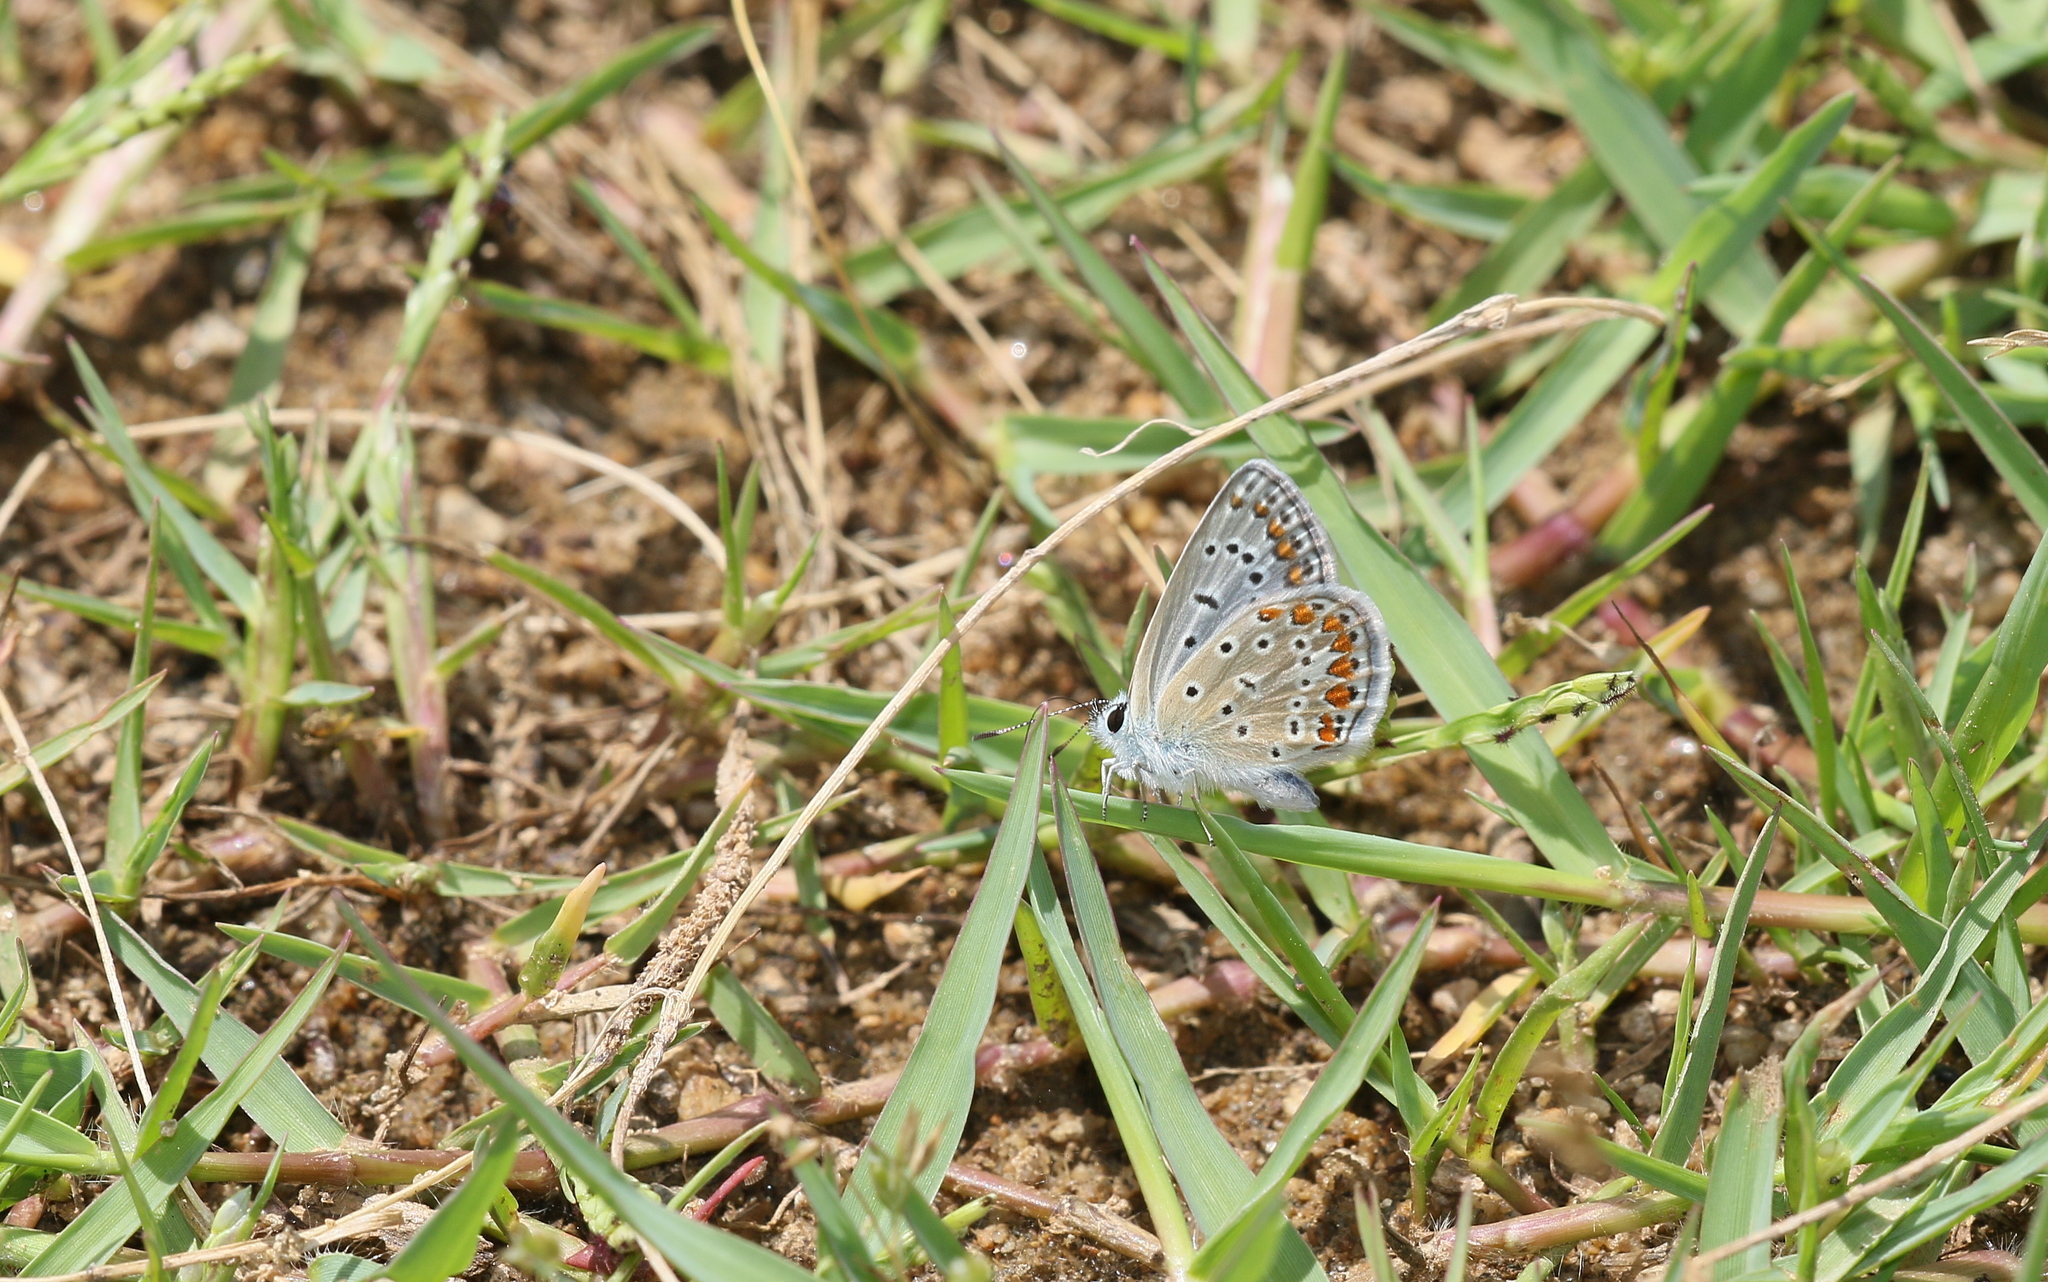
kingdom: Animalia
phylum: Arthropoda
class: Insecta
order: Lepidoptera
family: Lycaenidae
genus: Polyommatus
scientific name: Polyommatus icarus
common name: Common blue
